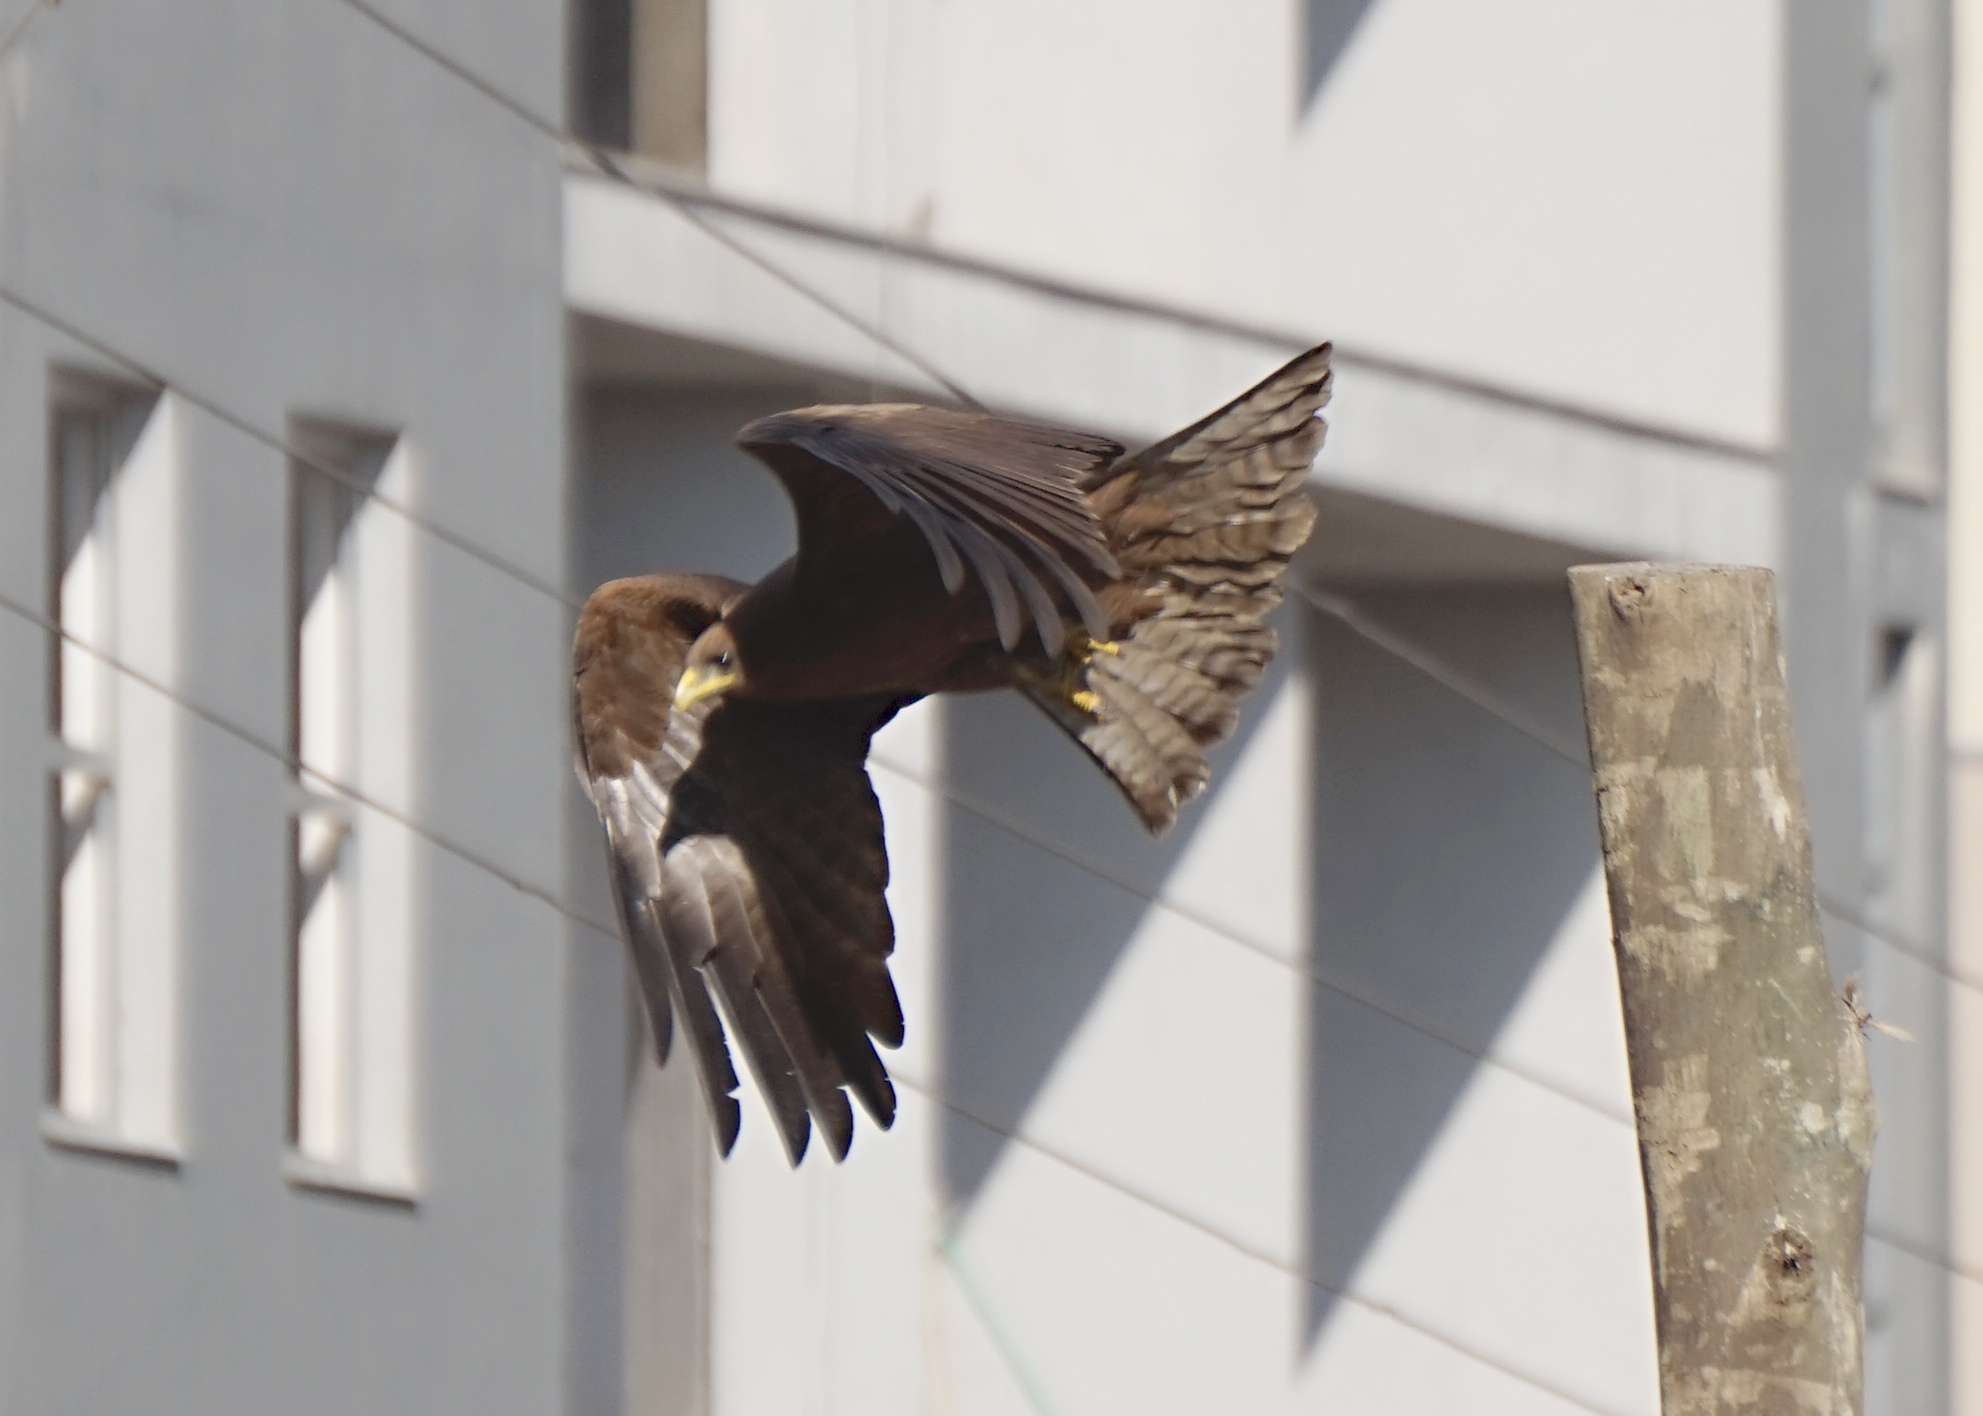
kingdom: Animalia
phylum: Chordata
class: Aves
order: Accipitriformes
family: Accipitridae
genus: Milvus
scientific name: Milvus migrans
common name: Black kite
